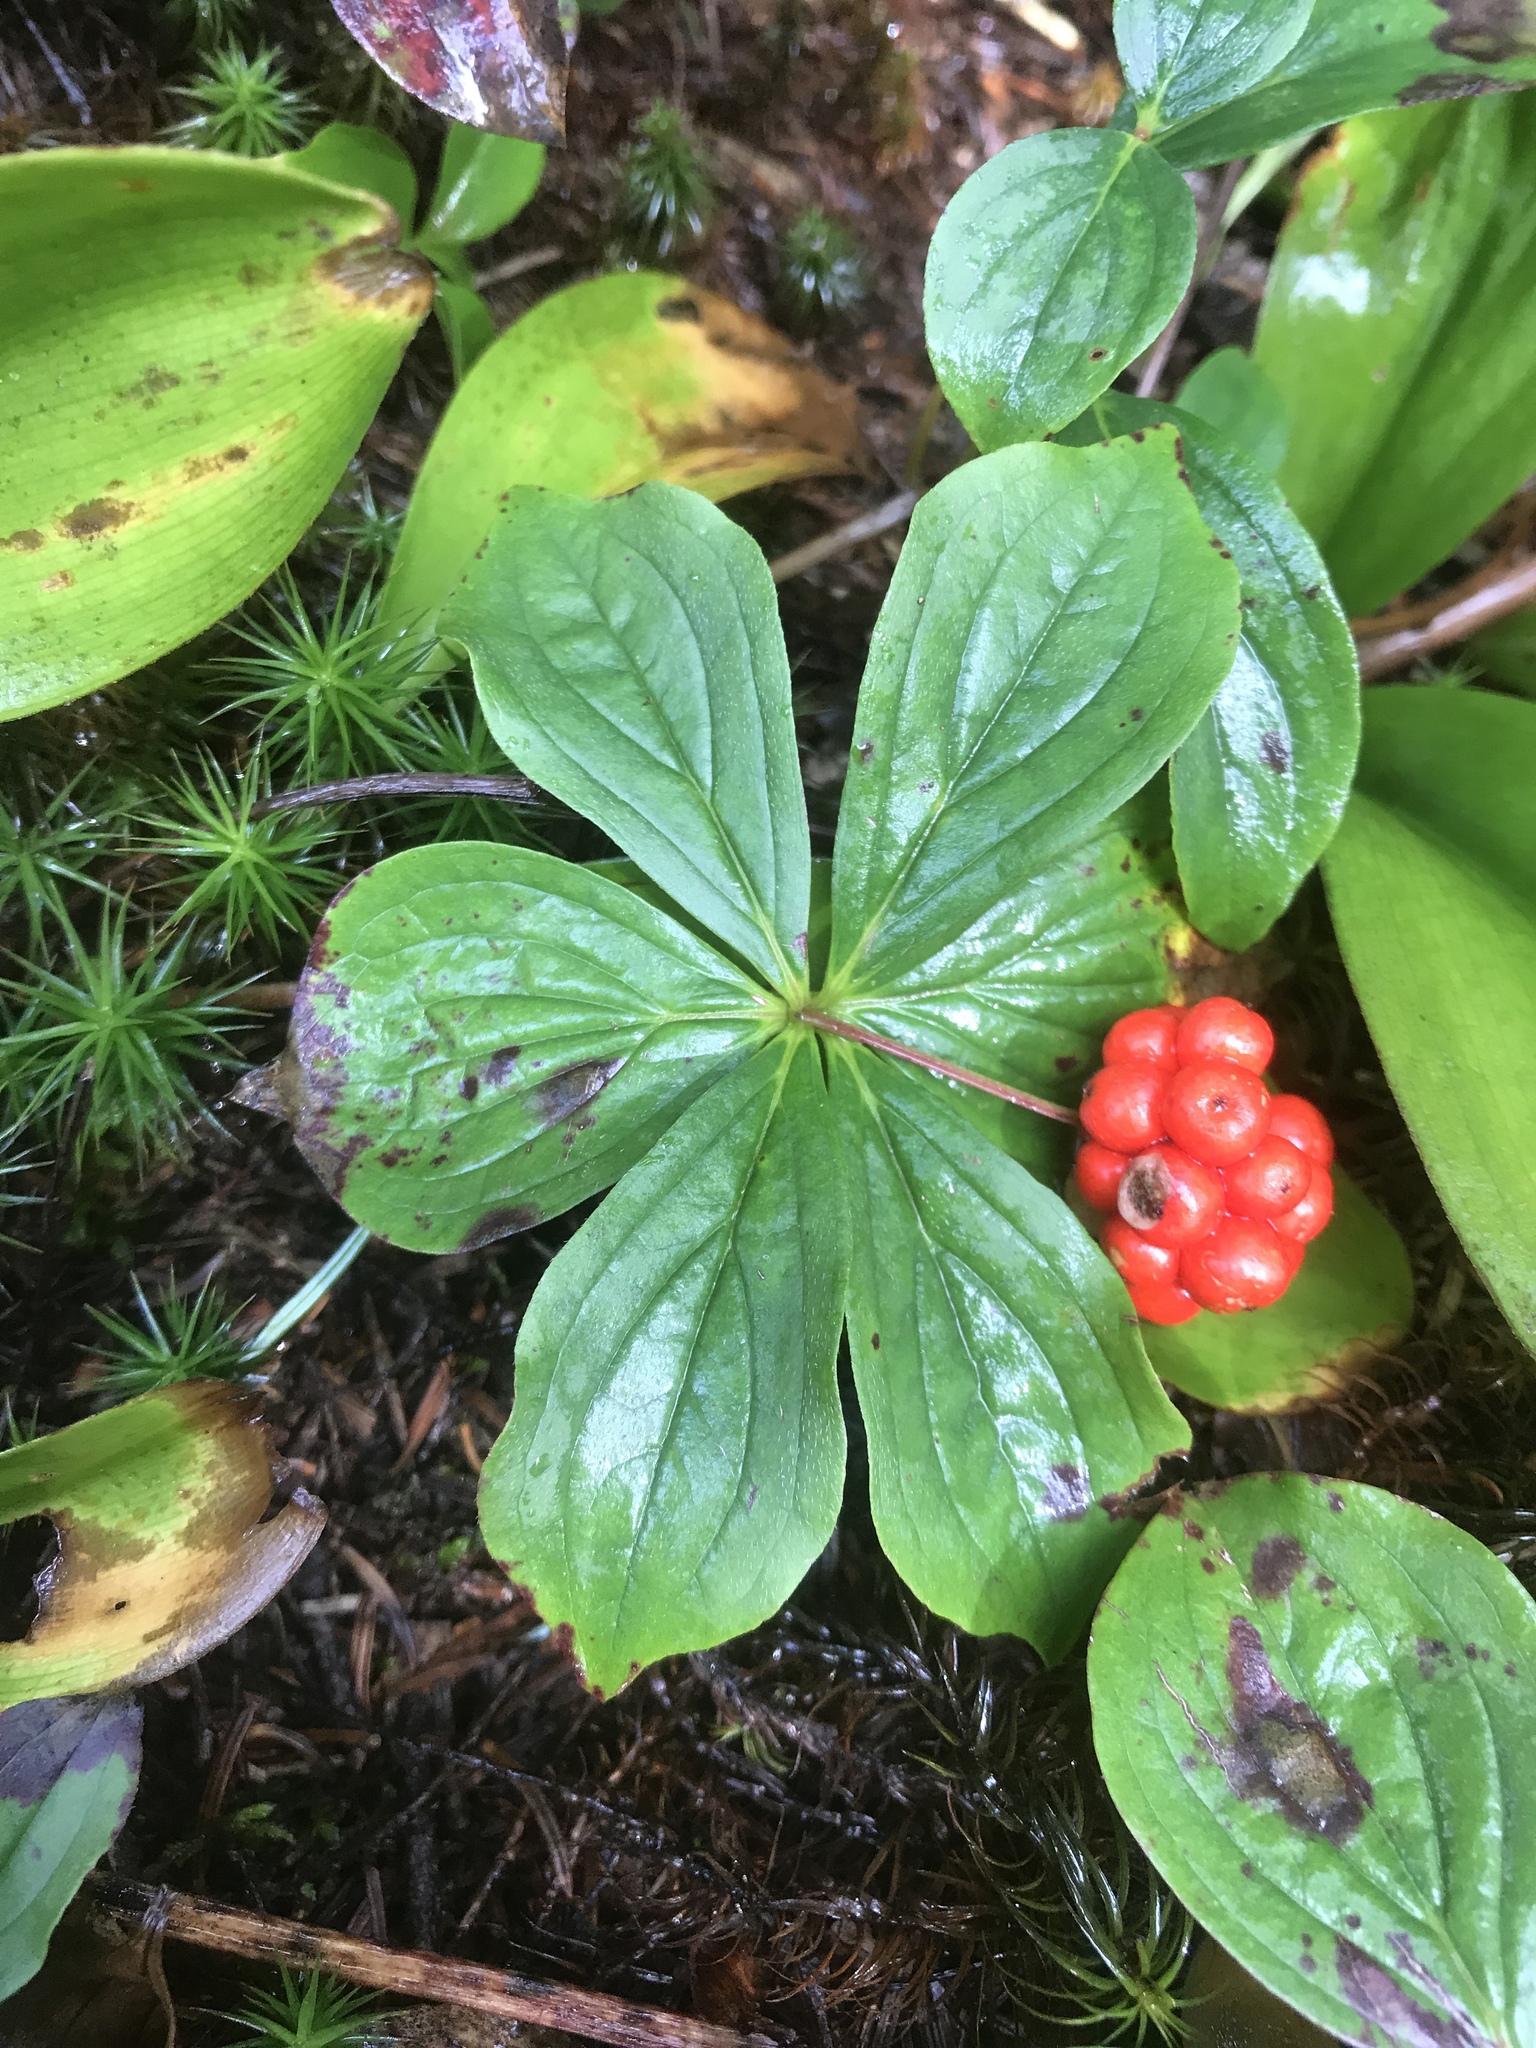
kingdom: Plantae
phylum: Tracheophyta
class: Magnoliopsida
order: Cornales
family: Cornaceae
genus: Cornus
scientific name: Cornus canadensis
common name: Creeping dogwood
